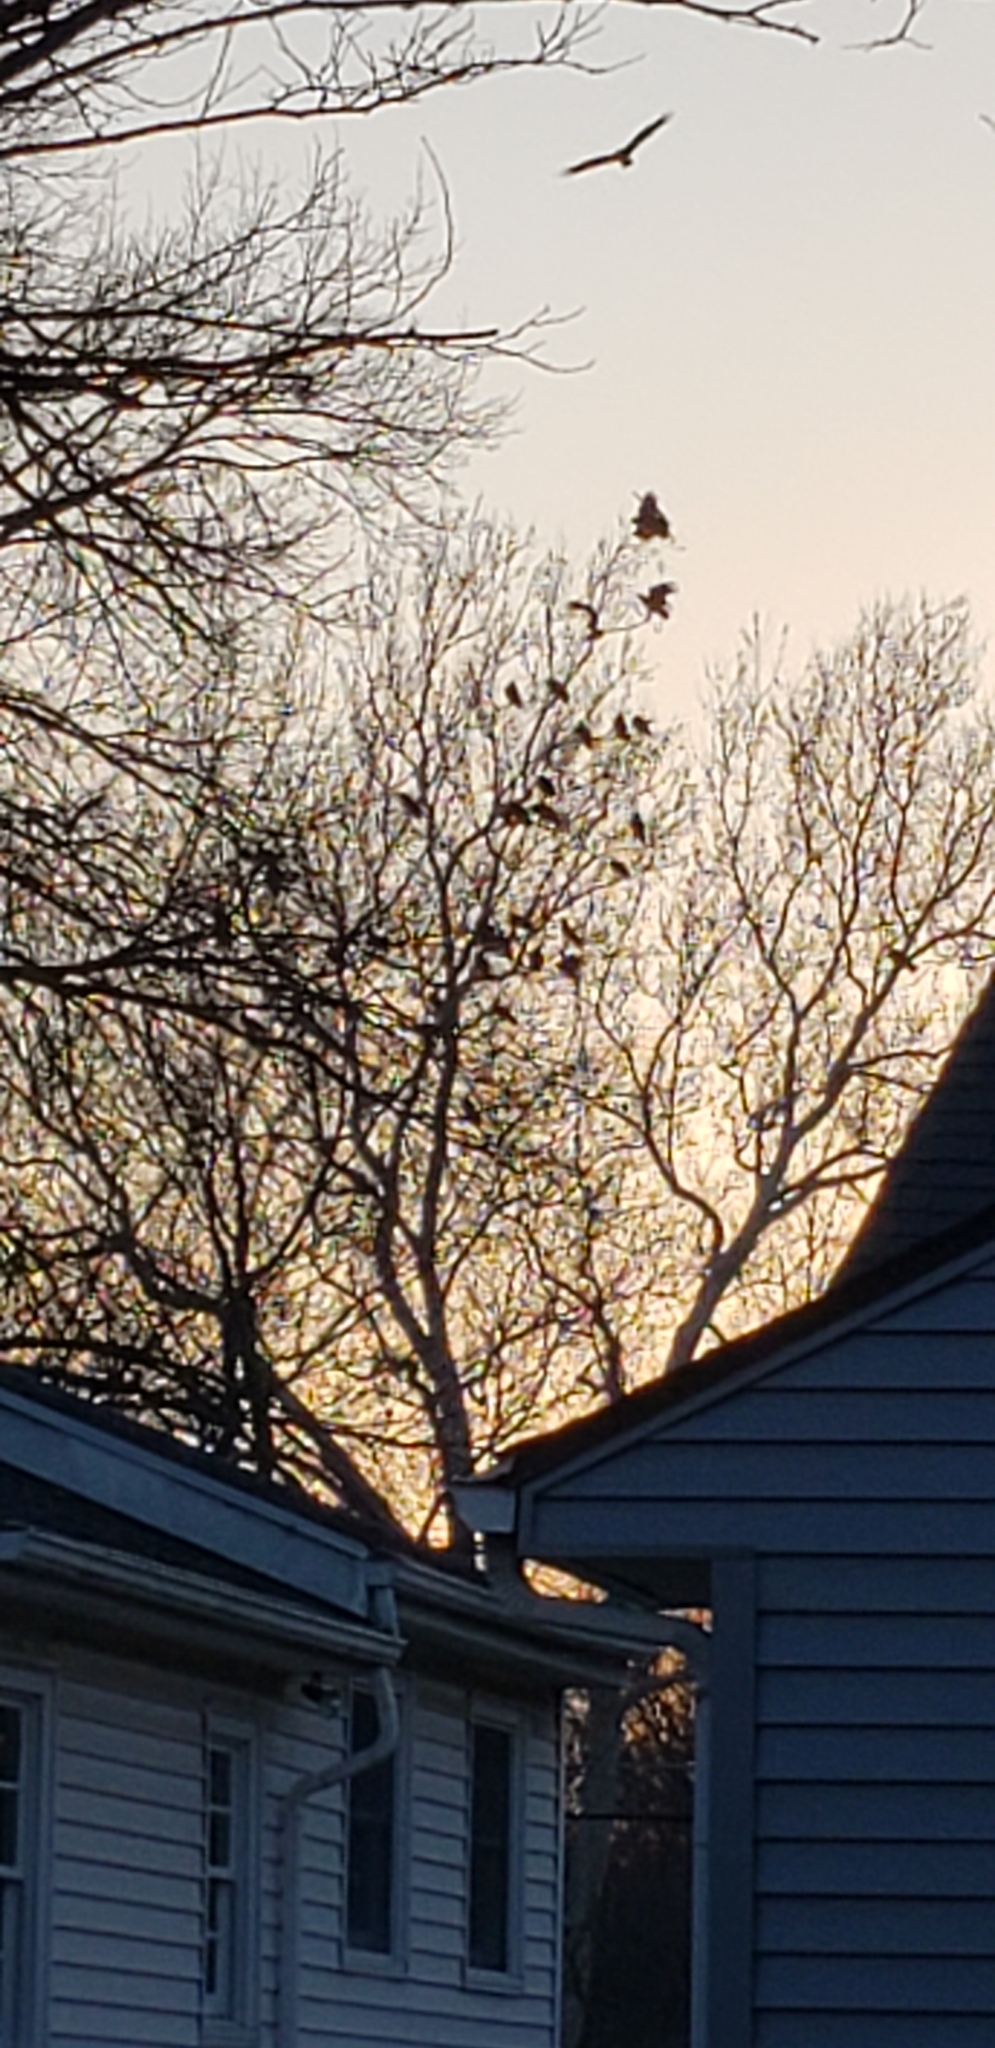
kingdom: Animalia
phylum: Chordata
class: Aves
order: Accipitriformes
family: Cathartidae
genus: Cathartes
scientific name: Cathartes aura
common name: Turkey vulture
